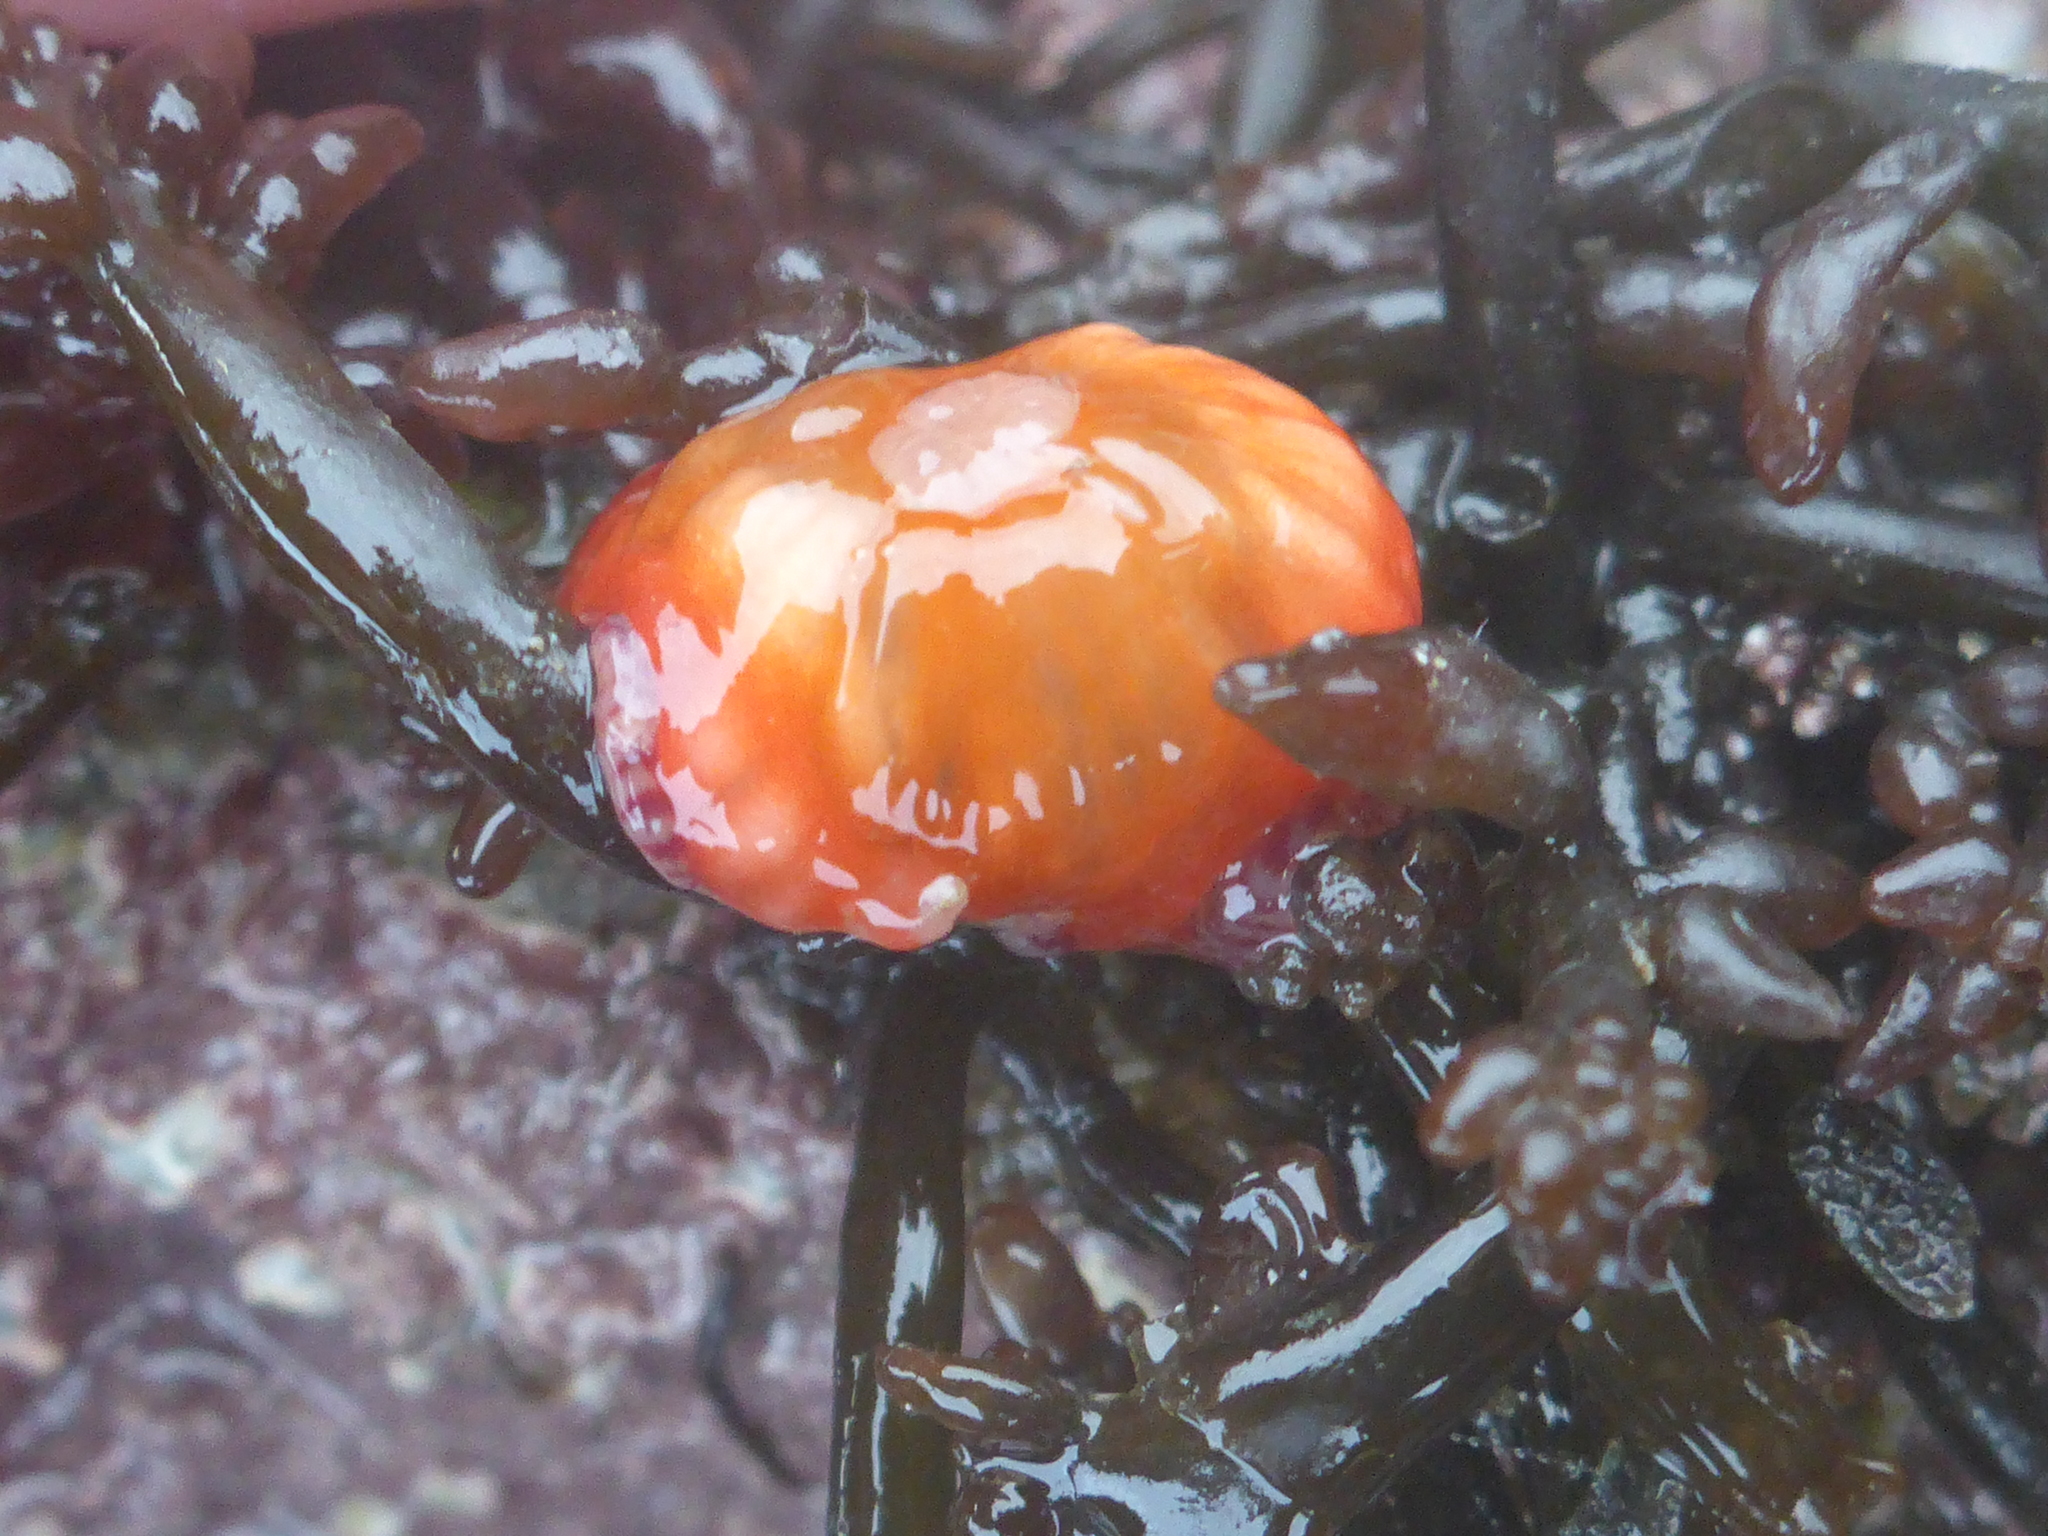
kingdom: Animalia
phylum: Cnidaria
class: Anthozoa
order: Actiniaria
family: Actiniidae
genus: Epiactis
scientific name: Epiactis prolifera
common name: Brooding anemone
